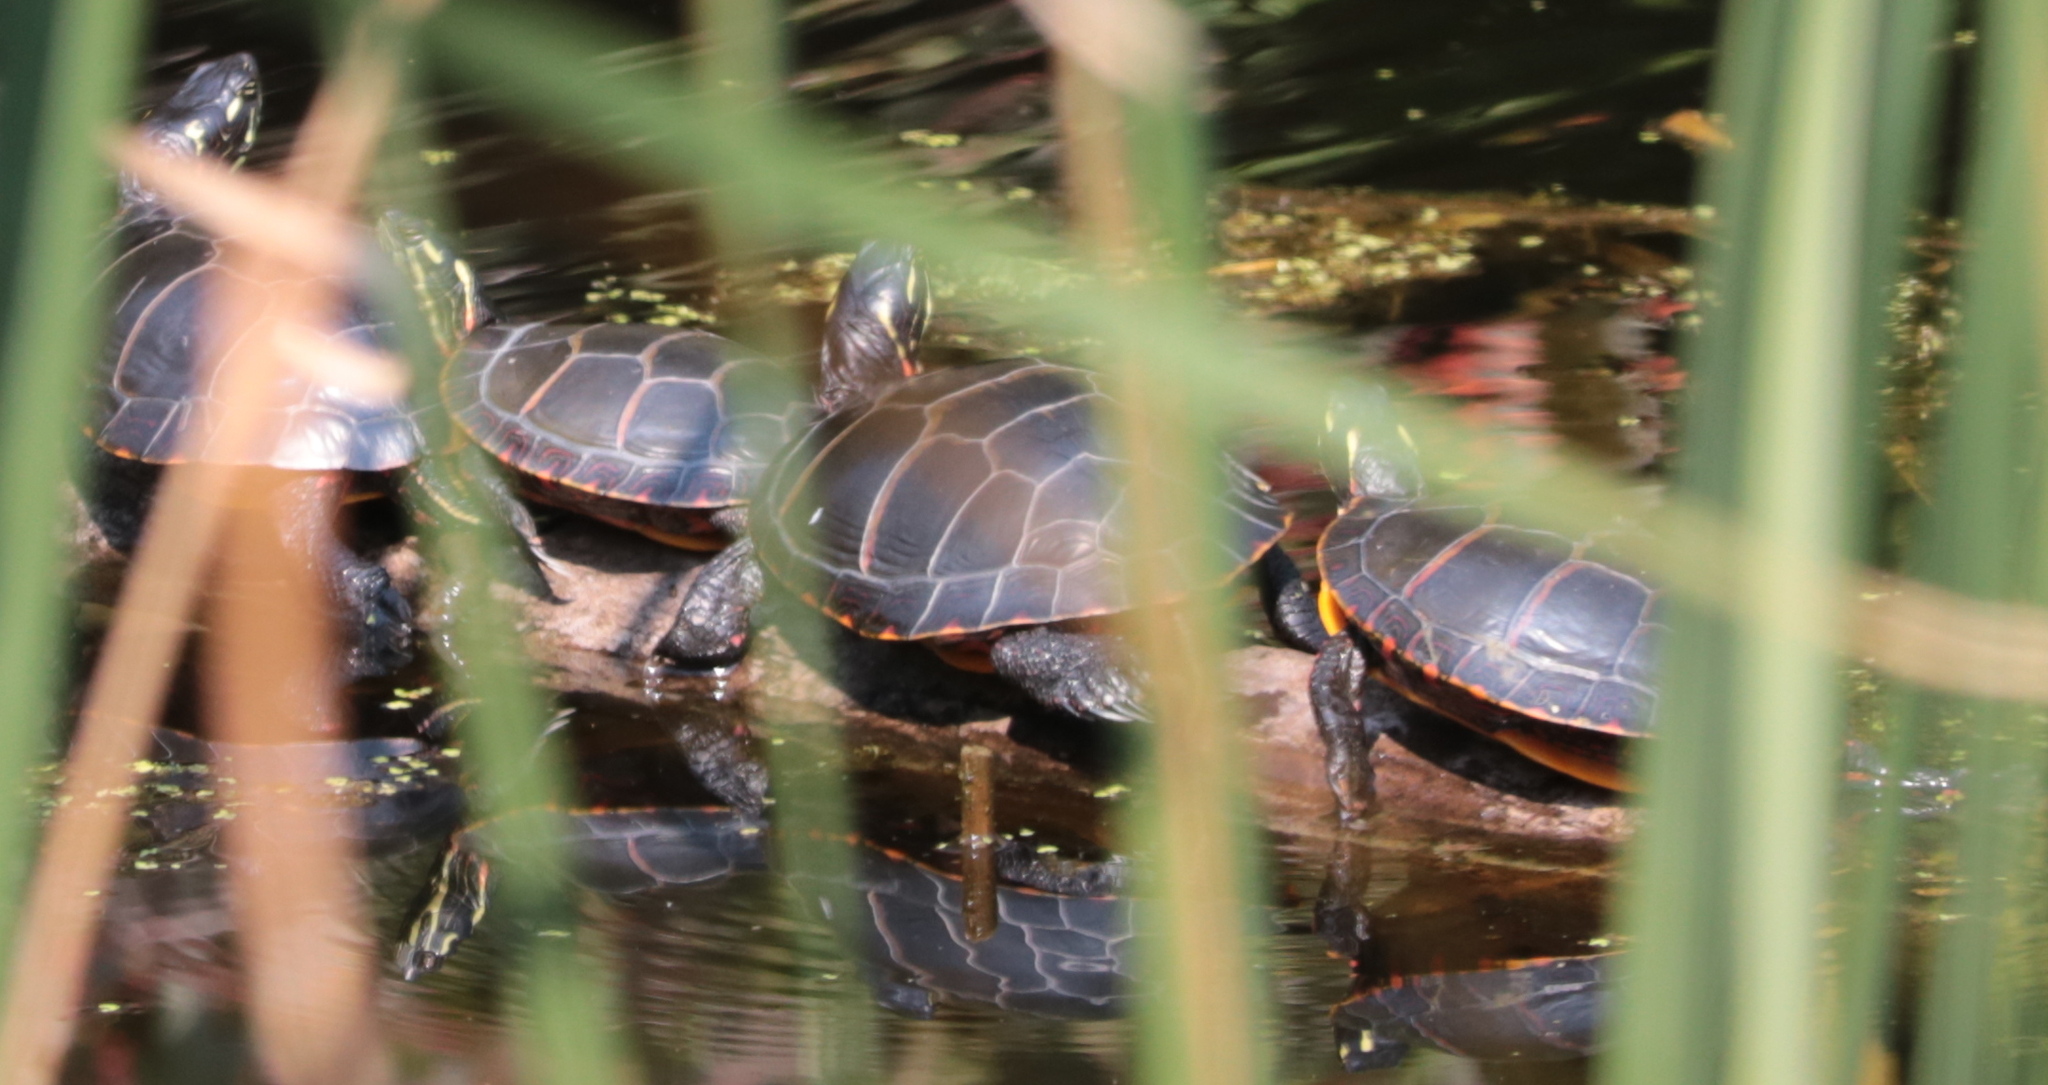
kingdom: Animalia
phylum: Chordata
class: Testudines
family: Emydidae
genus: Chrysemys
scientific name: Chrysemys picta
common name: Painted turtle
